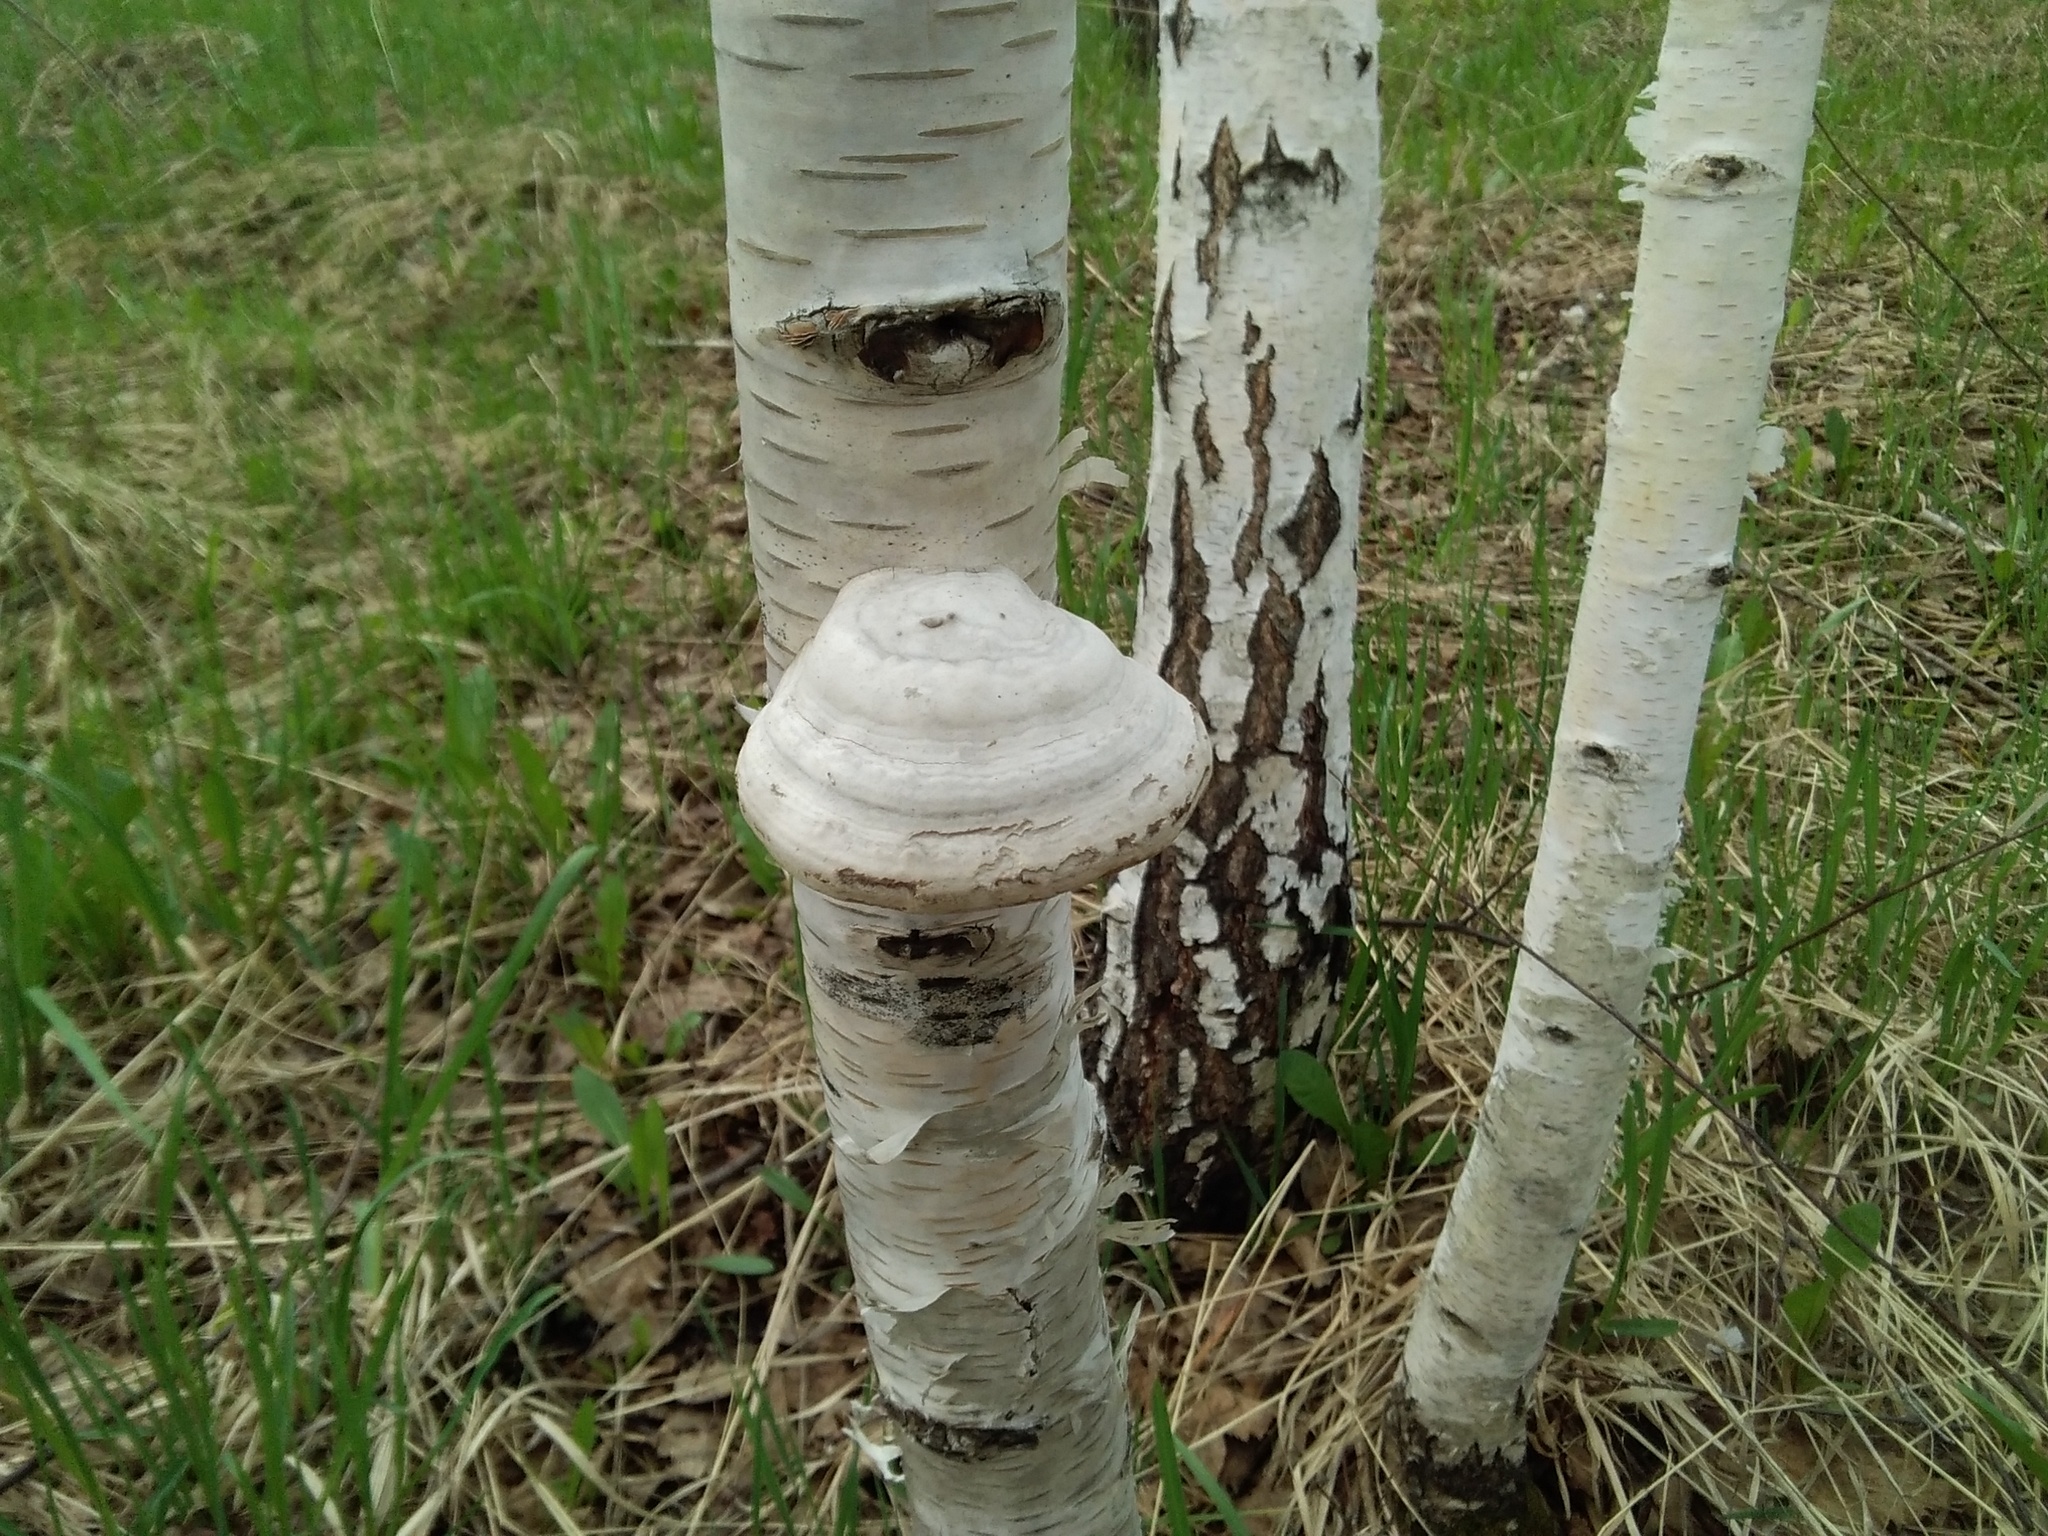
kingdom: Fungi
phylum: Basidiomycota
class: Agaricomycetes
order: Polyporales
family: Polyporaceae
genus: Fomes
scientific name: Fomes fomentarius
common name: Hoof fungus
